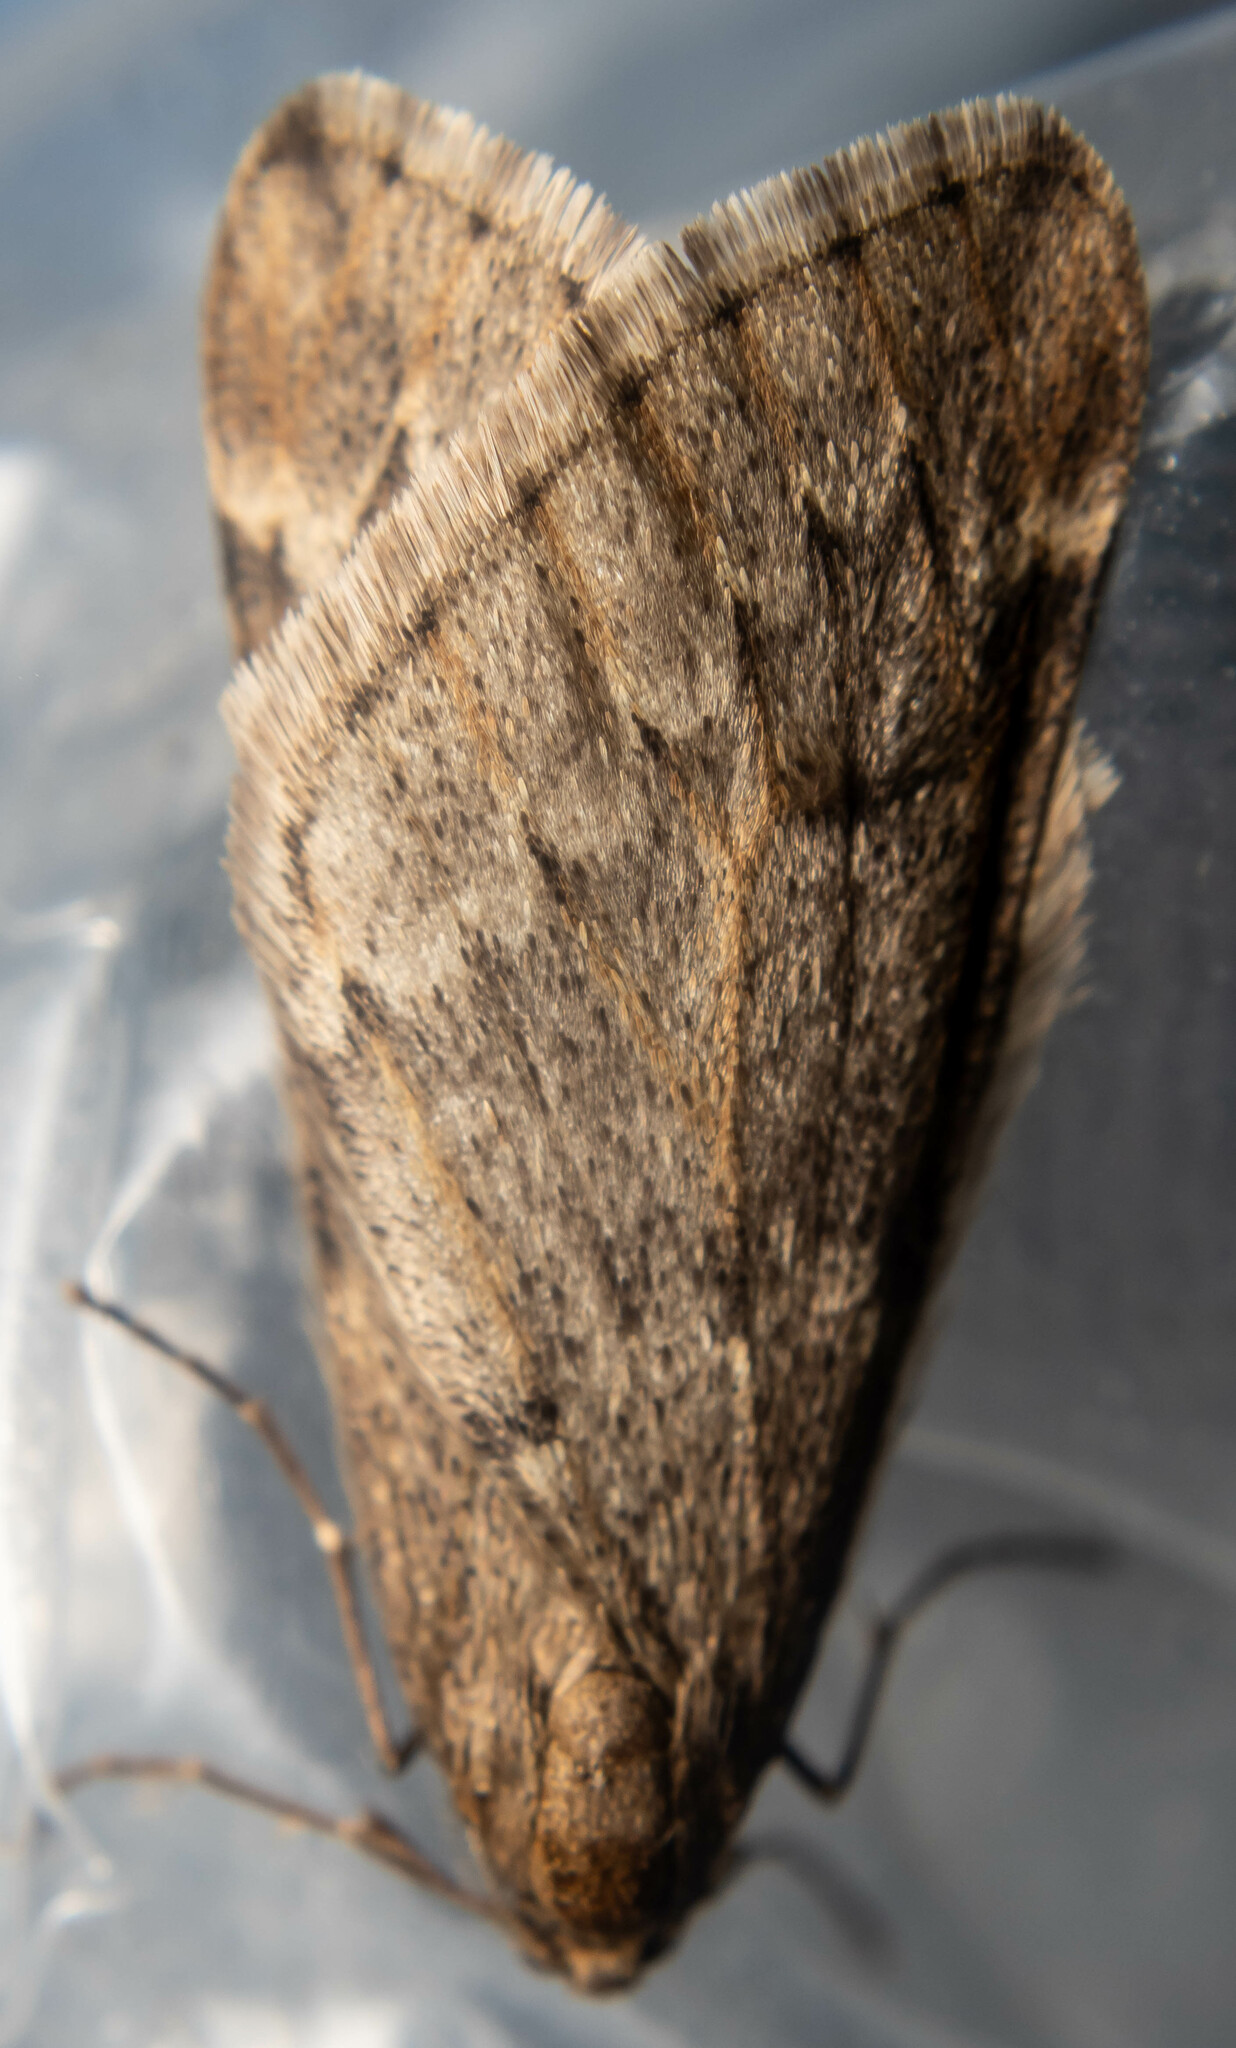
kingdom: Animalia
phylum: Arthropoda
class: Insecta
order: Lepidoptera
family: Geometridae
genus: Alsophila
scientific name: Alsophila aescularia
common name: March moth
